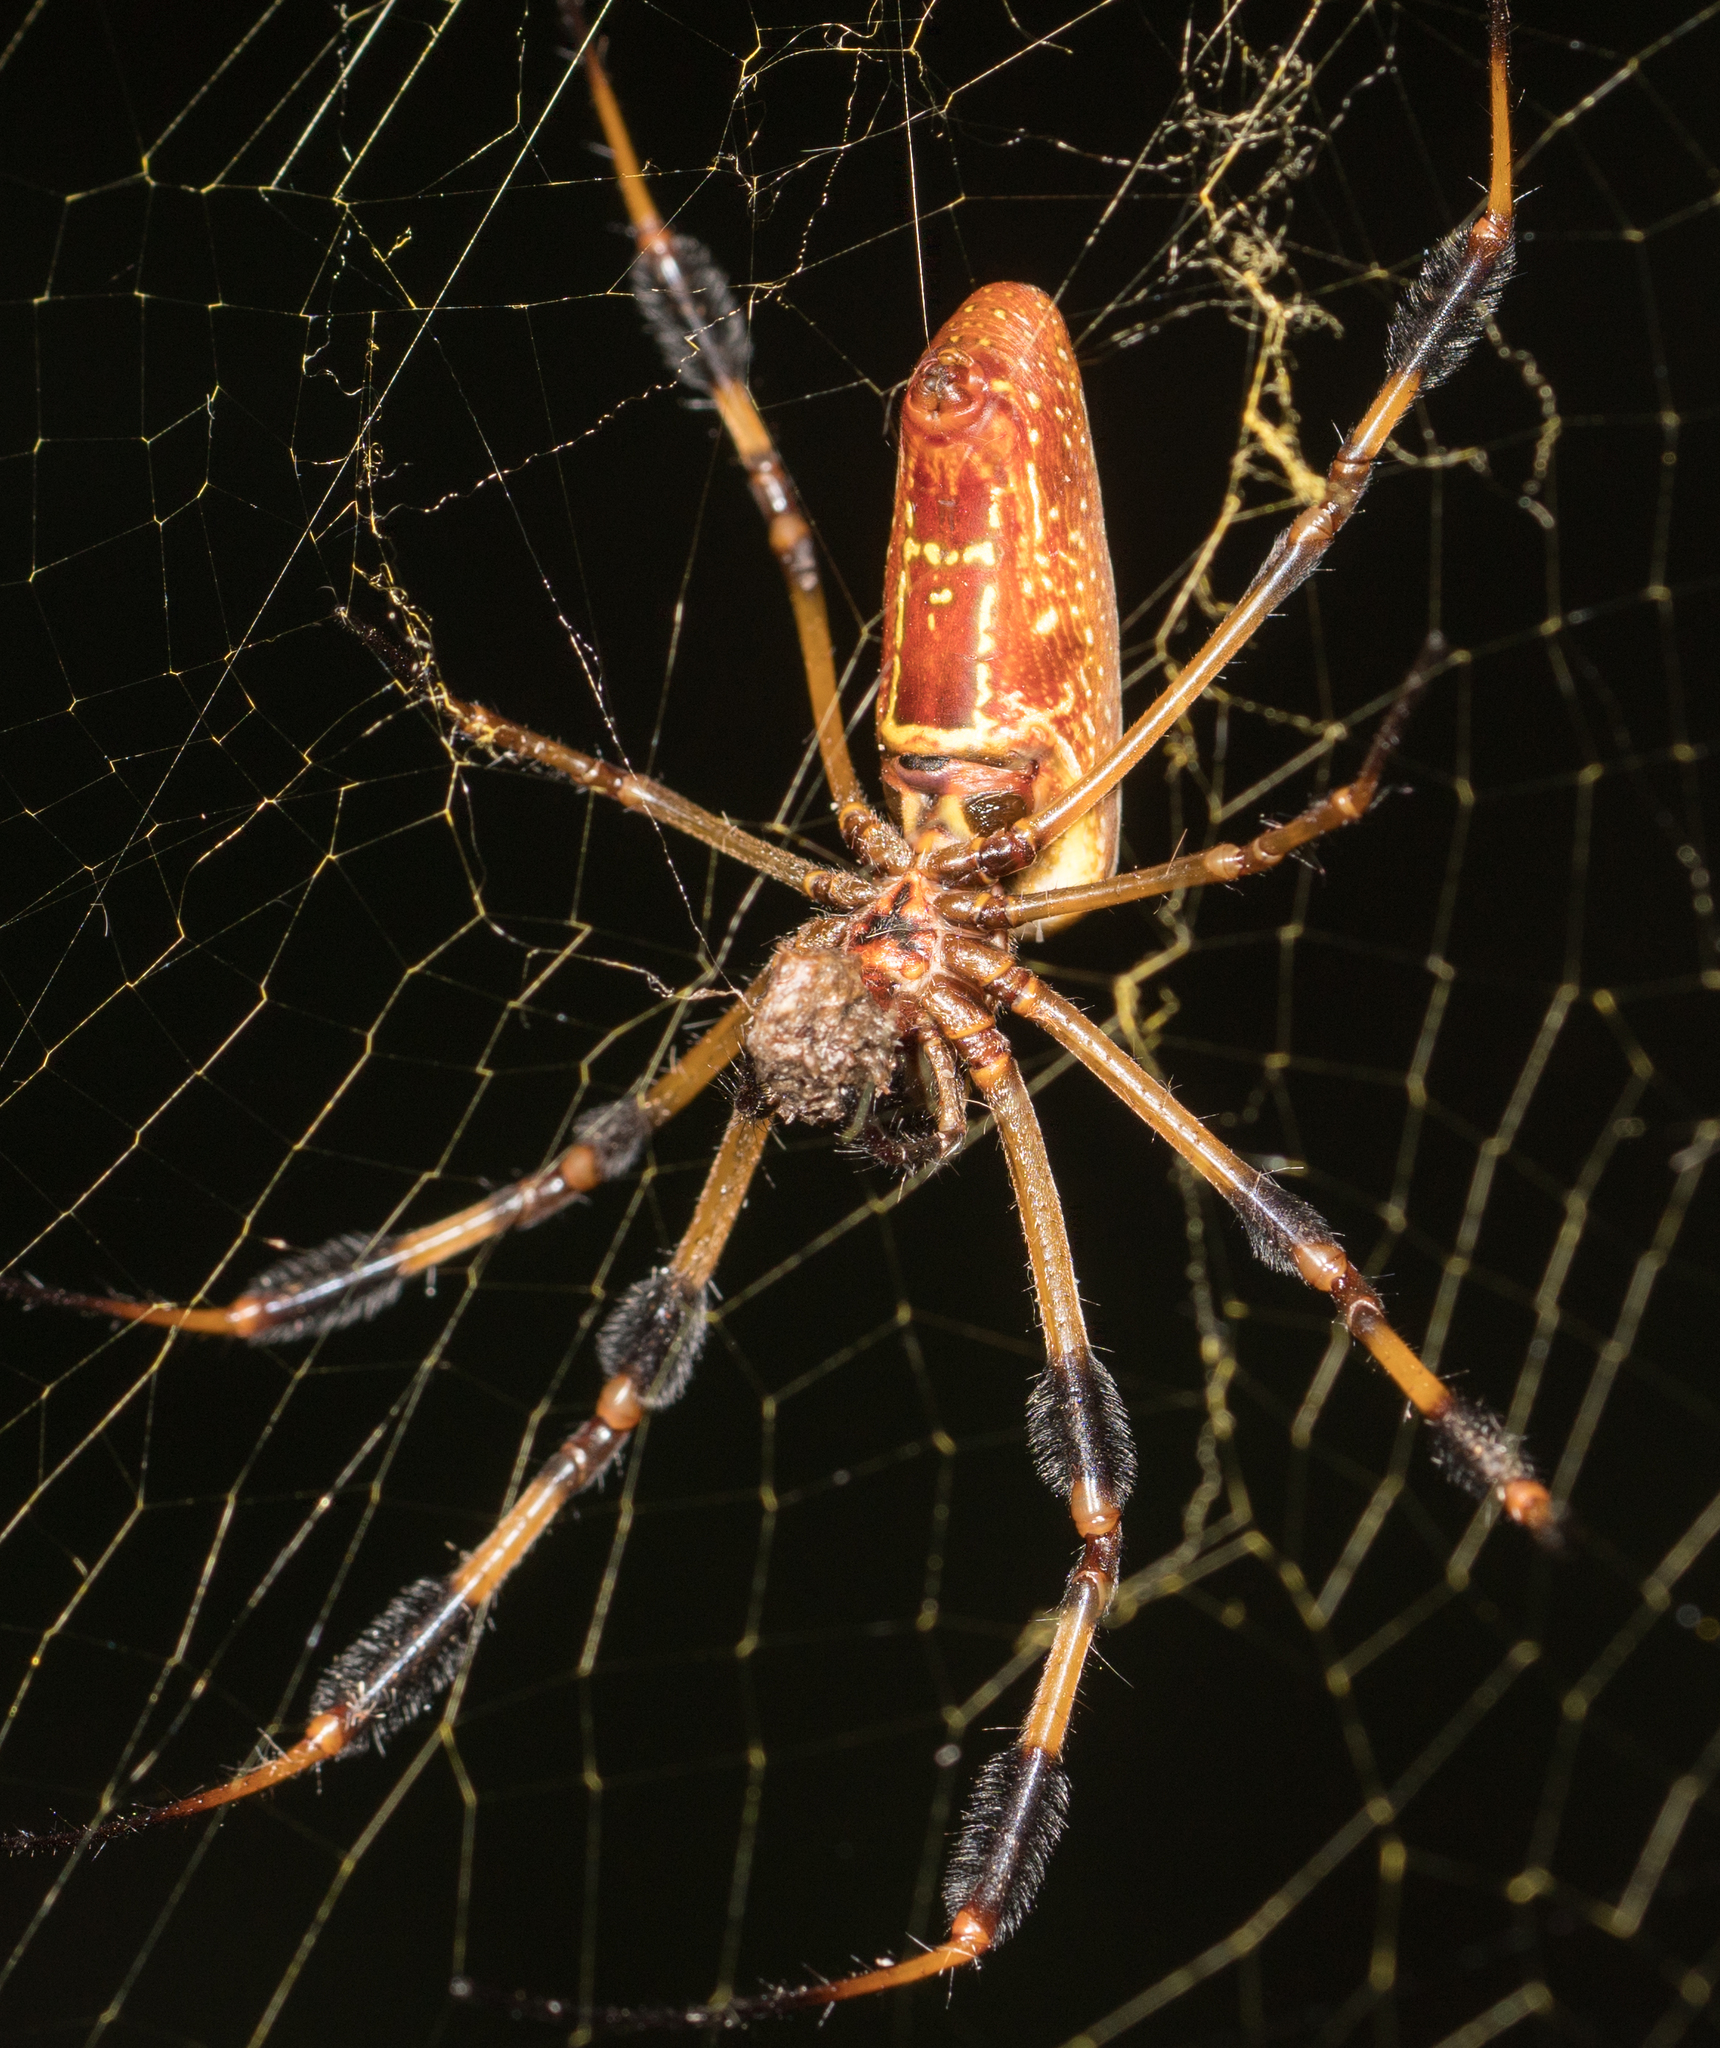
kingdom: Animalia
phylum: Arthropoda
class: Arachnida
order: Araneae
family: Araneidae
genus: Trichonephila
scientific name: Trichonephila clavipes
